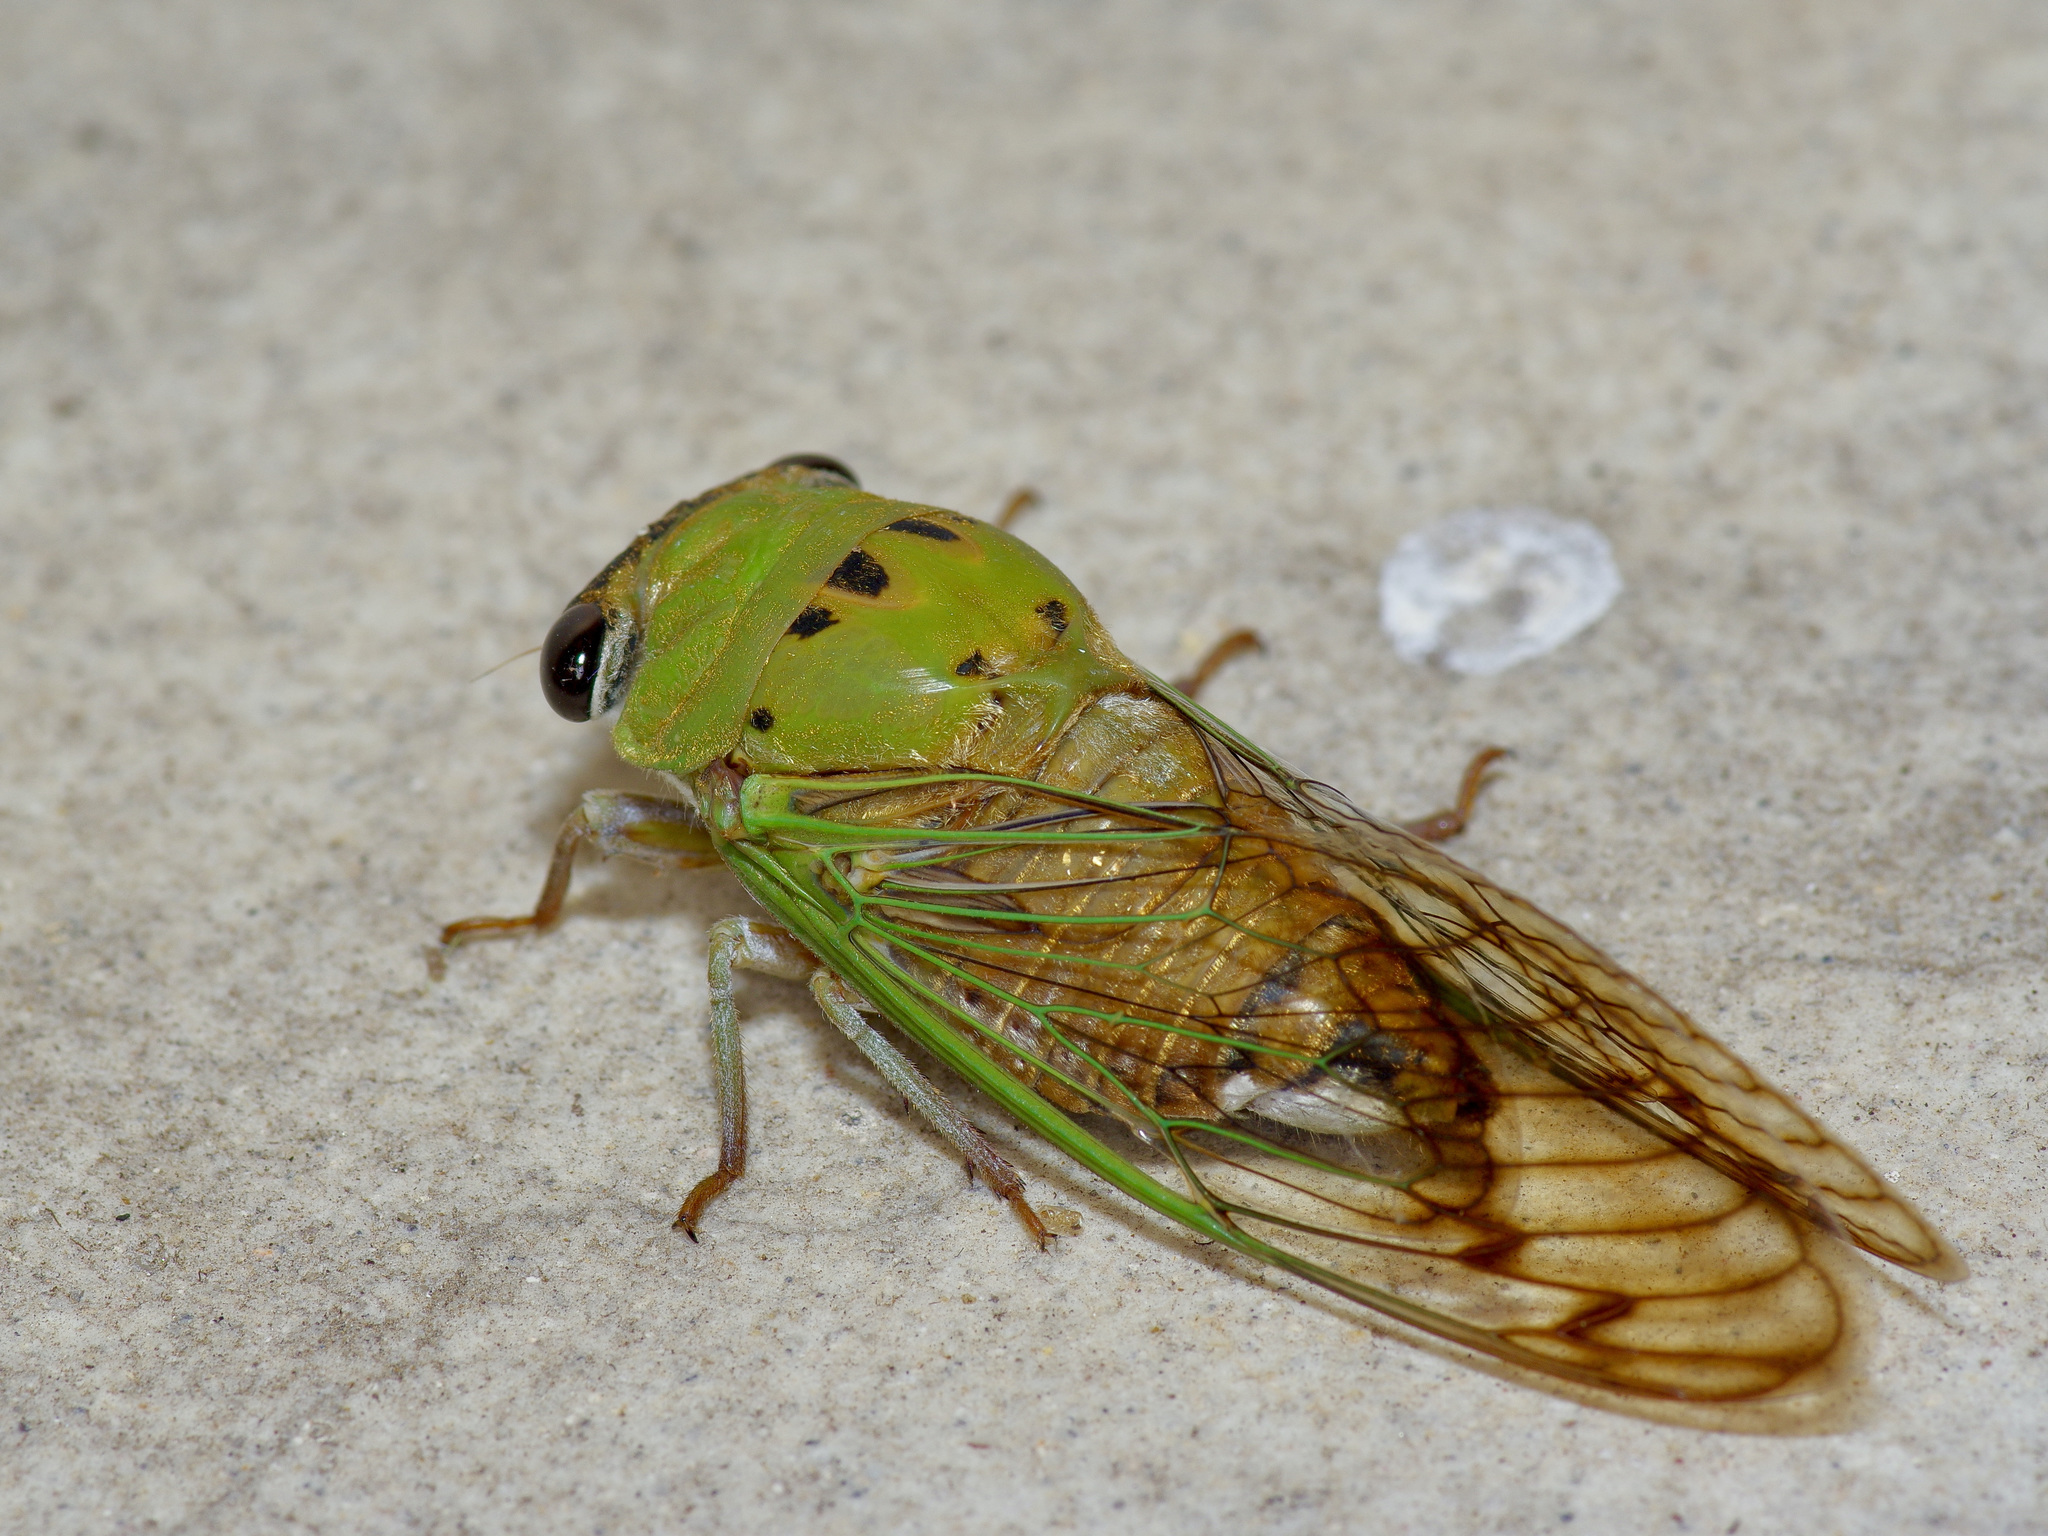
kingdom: Animalia
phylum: Arthropoda
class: Insecta
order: Hemiptera
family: Cicadidae
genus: Neotibicen
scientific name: Neotibicen superbus
